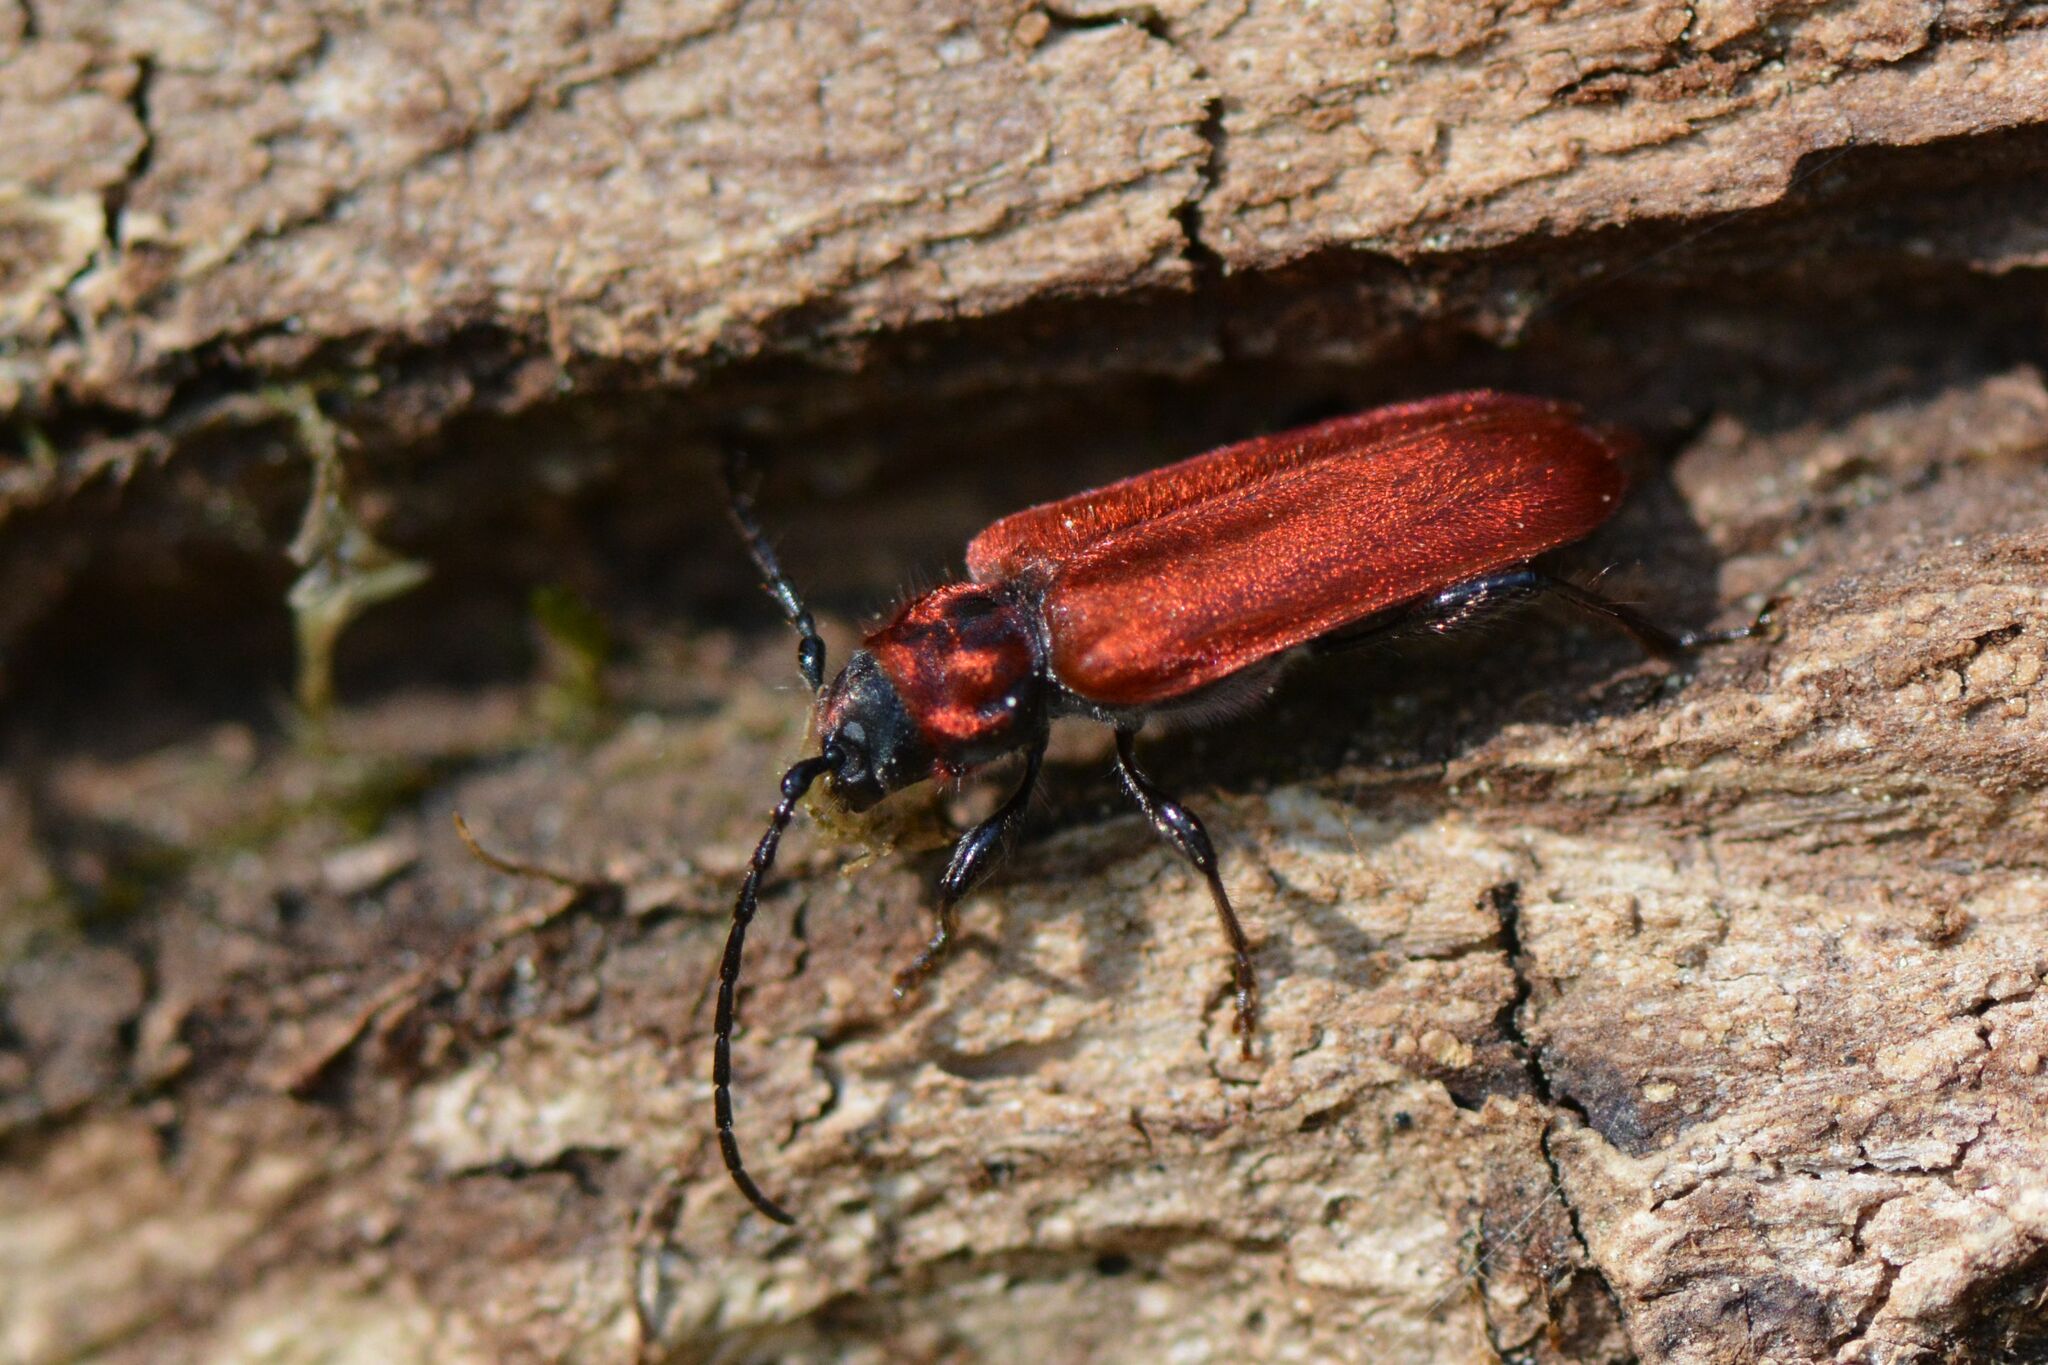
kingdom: Animalia
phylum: Arthropoda
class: Insecta
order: Coleoptera
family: Cerambycidae
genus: Pyrrhidium
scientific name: Pyrrhidium sanguineum
